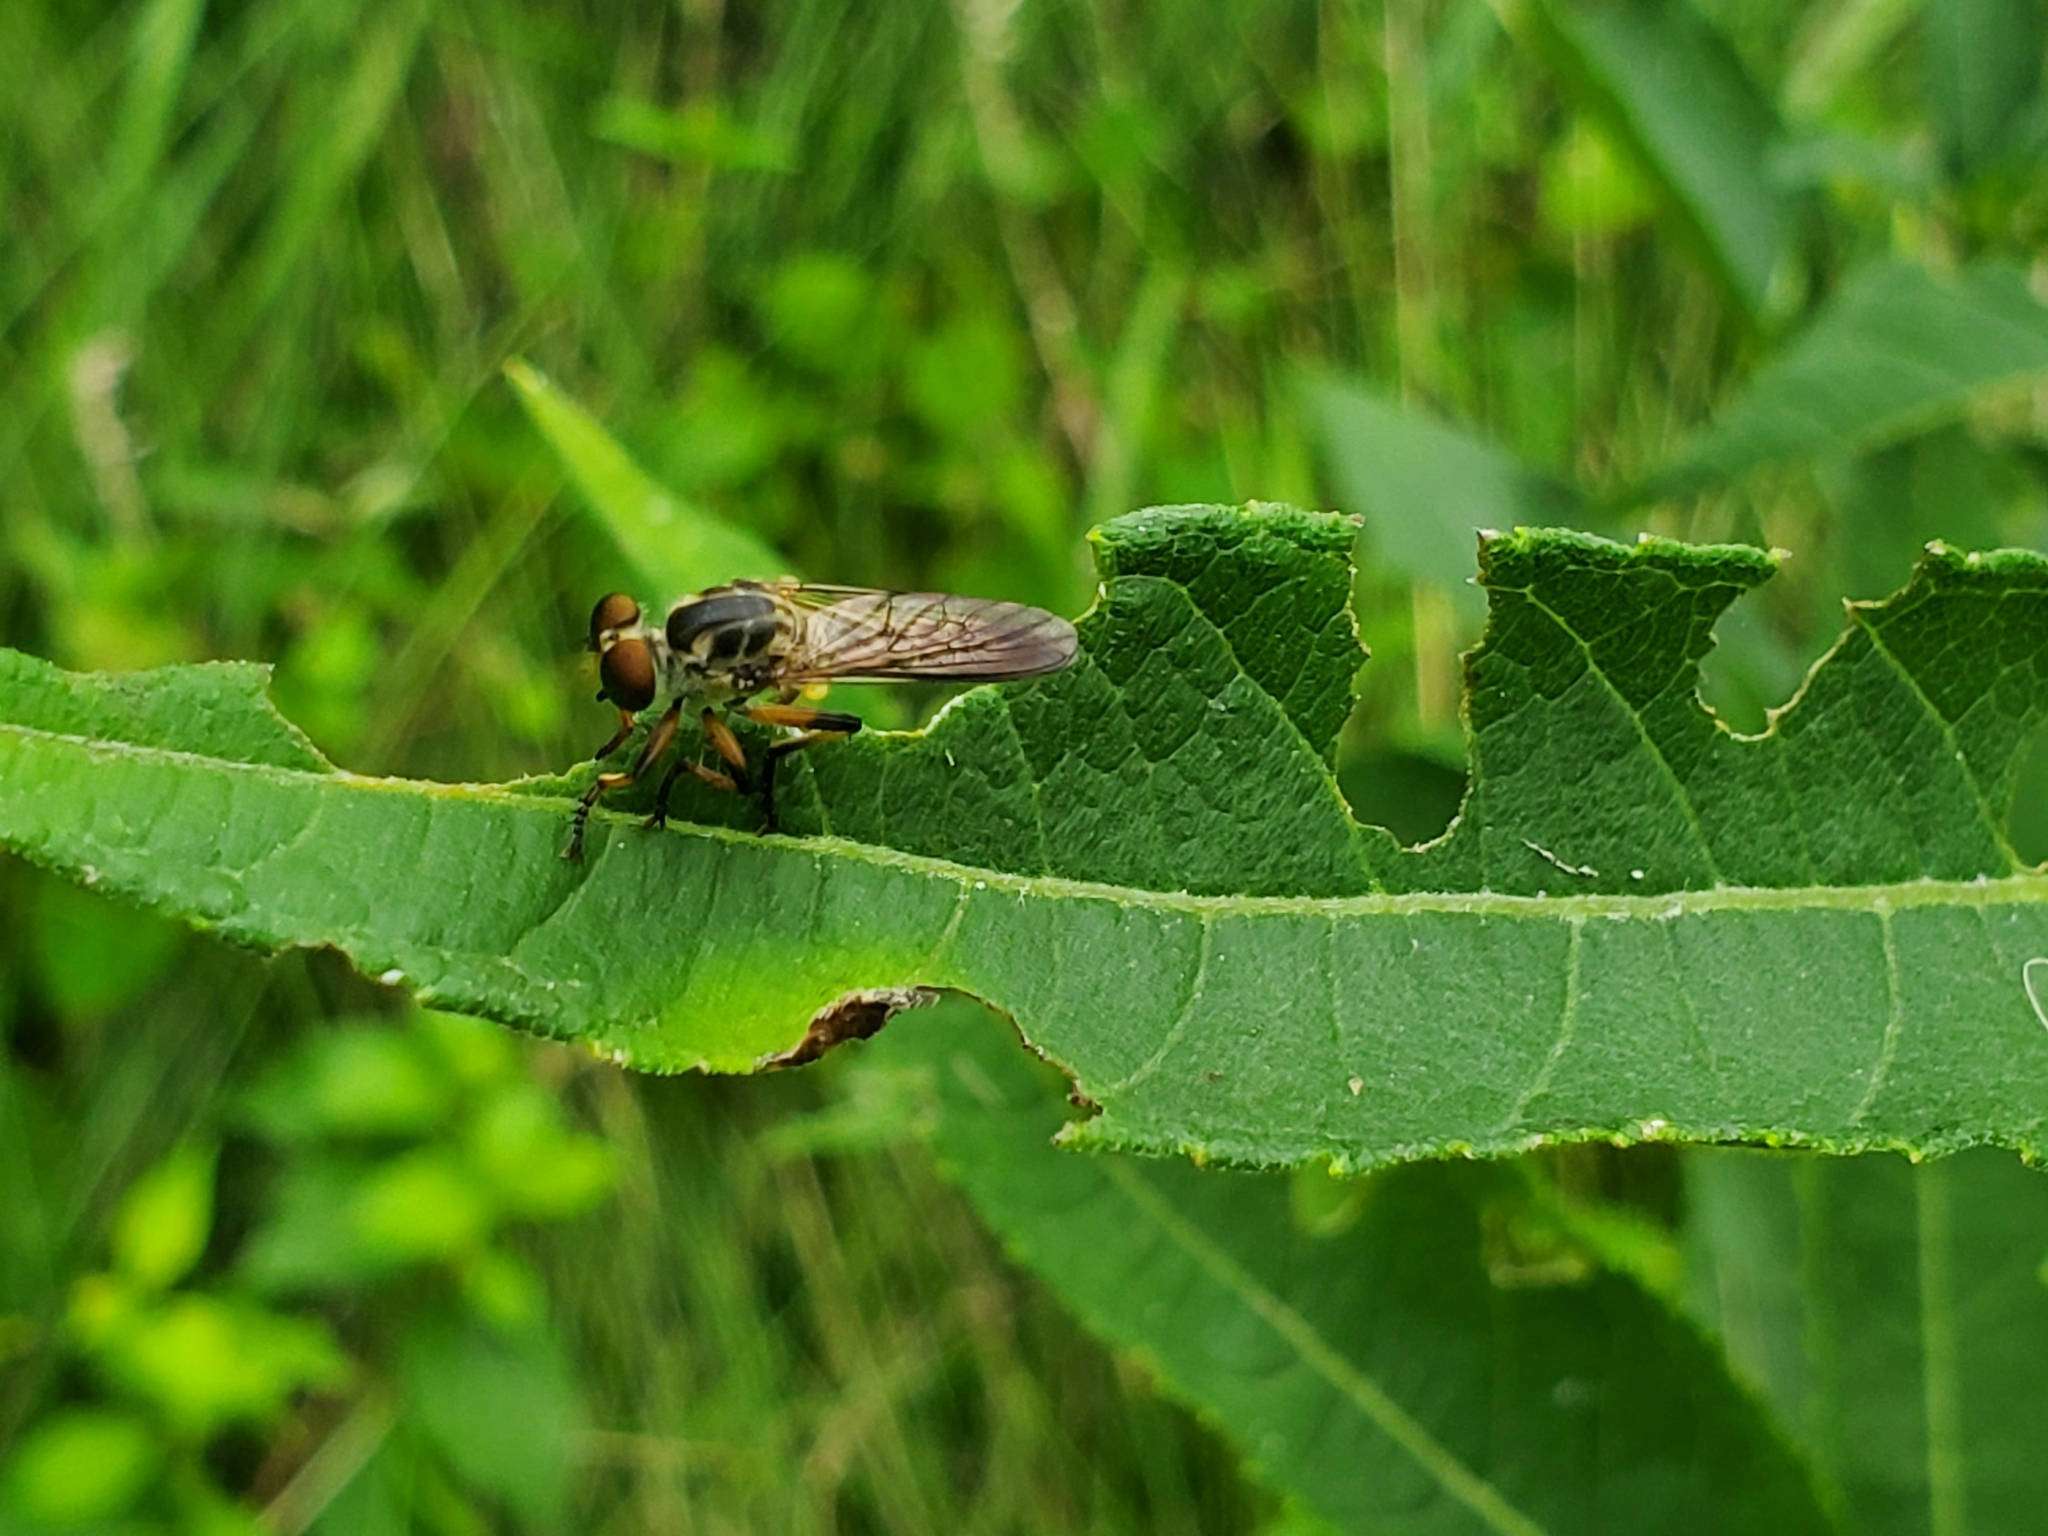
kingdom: Animalia
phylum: Arthropoda
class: Insecta
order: Diptera
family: Asilidae
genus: Ommatius
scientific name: Ommatius
